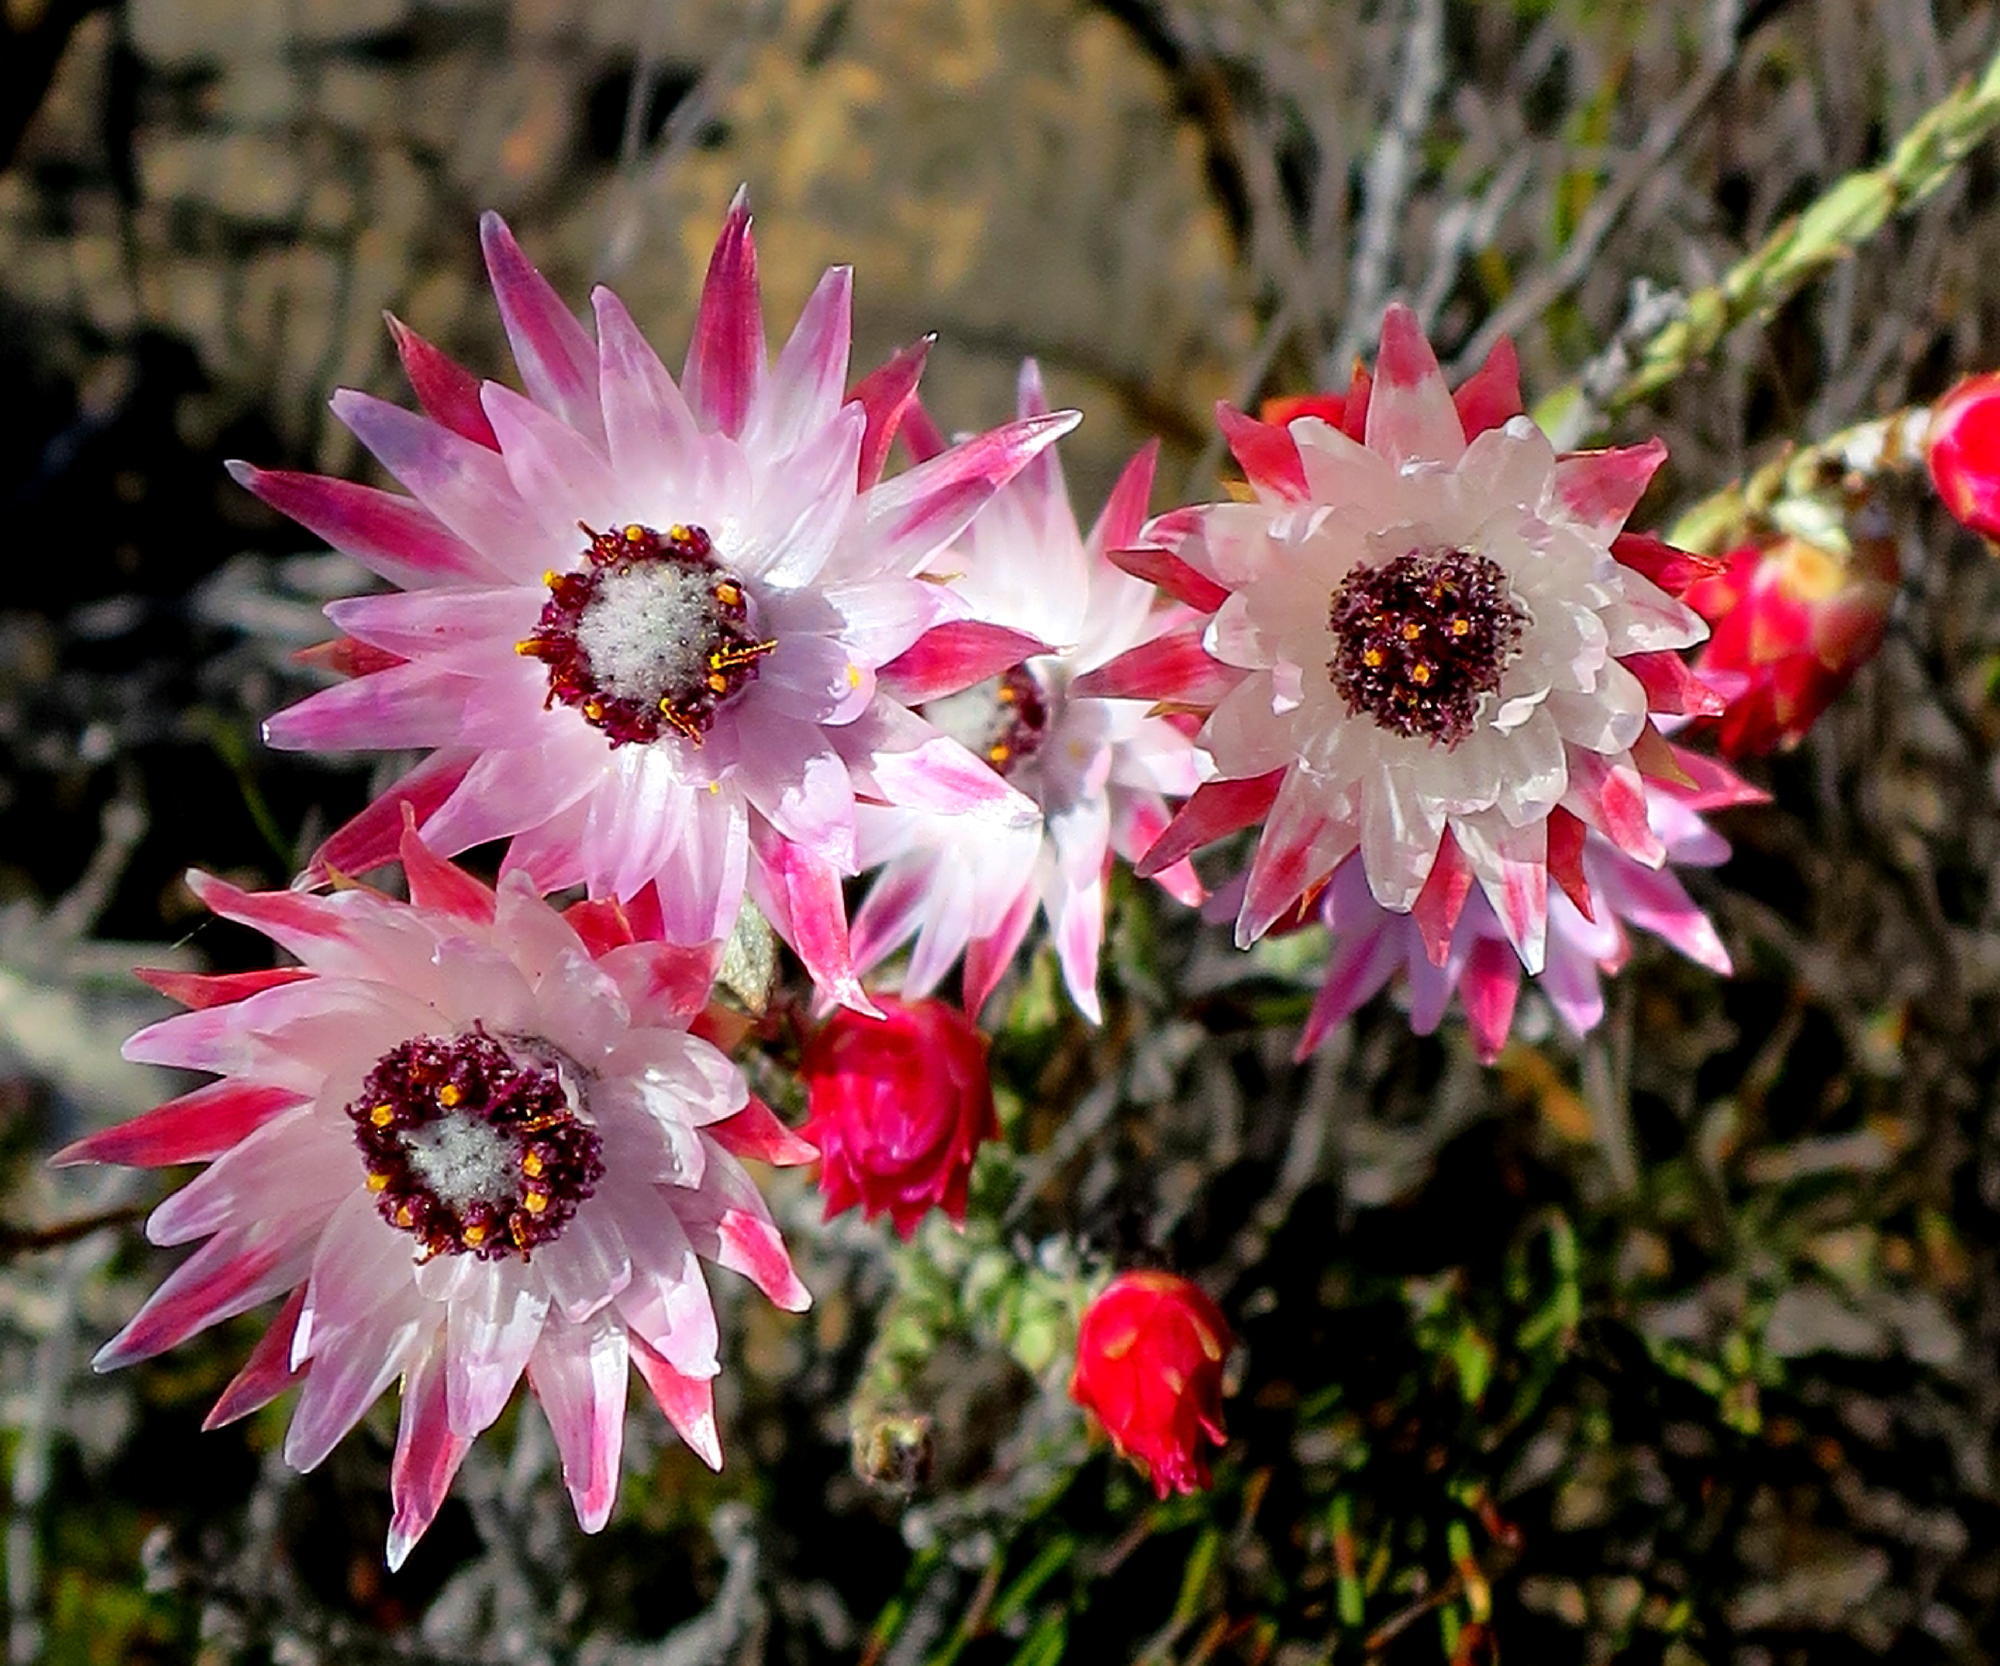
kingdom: Plantae
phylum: Tracheophyta
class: Magnoliopsida
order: Asterales
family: Asteraceae
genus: Syncarpha
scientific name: Syncarpha canescens
